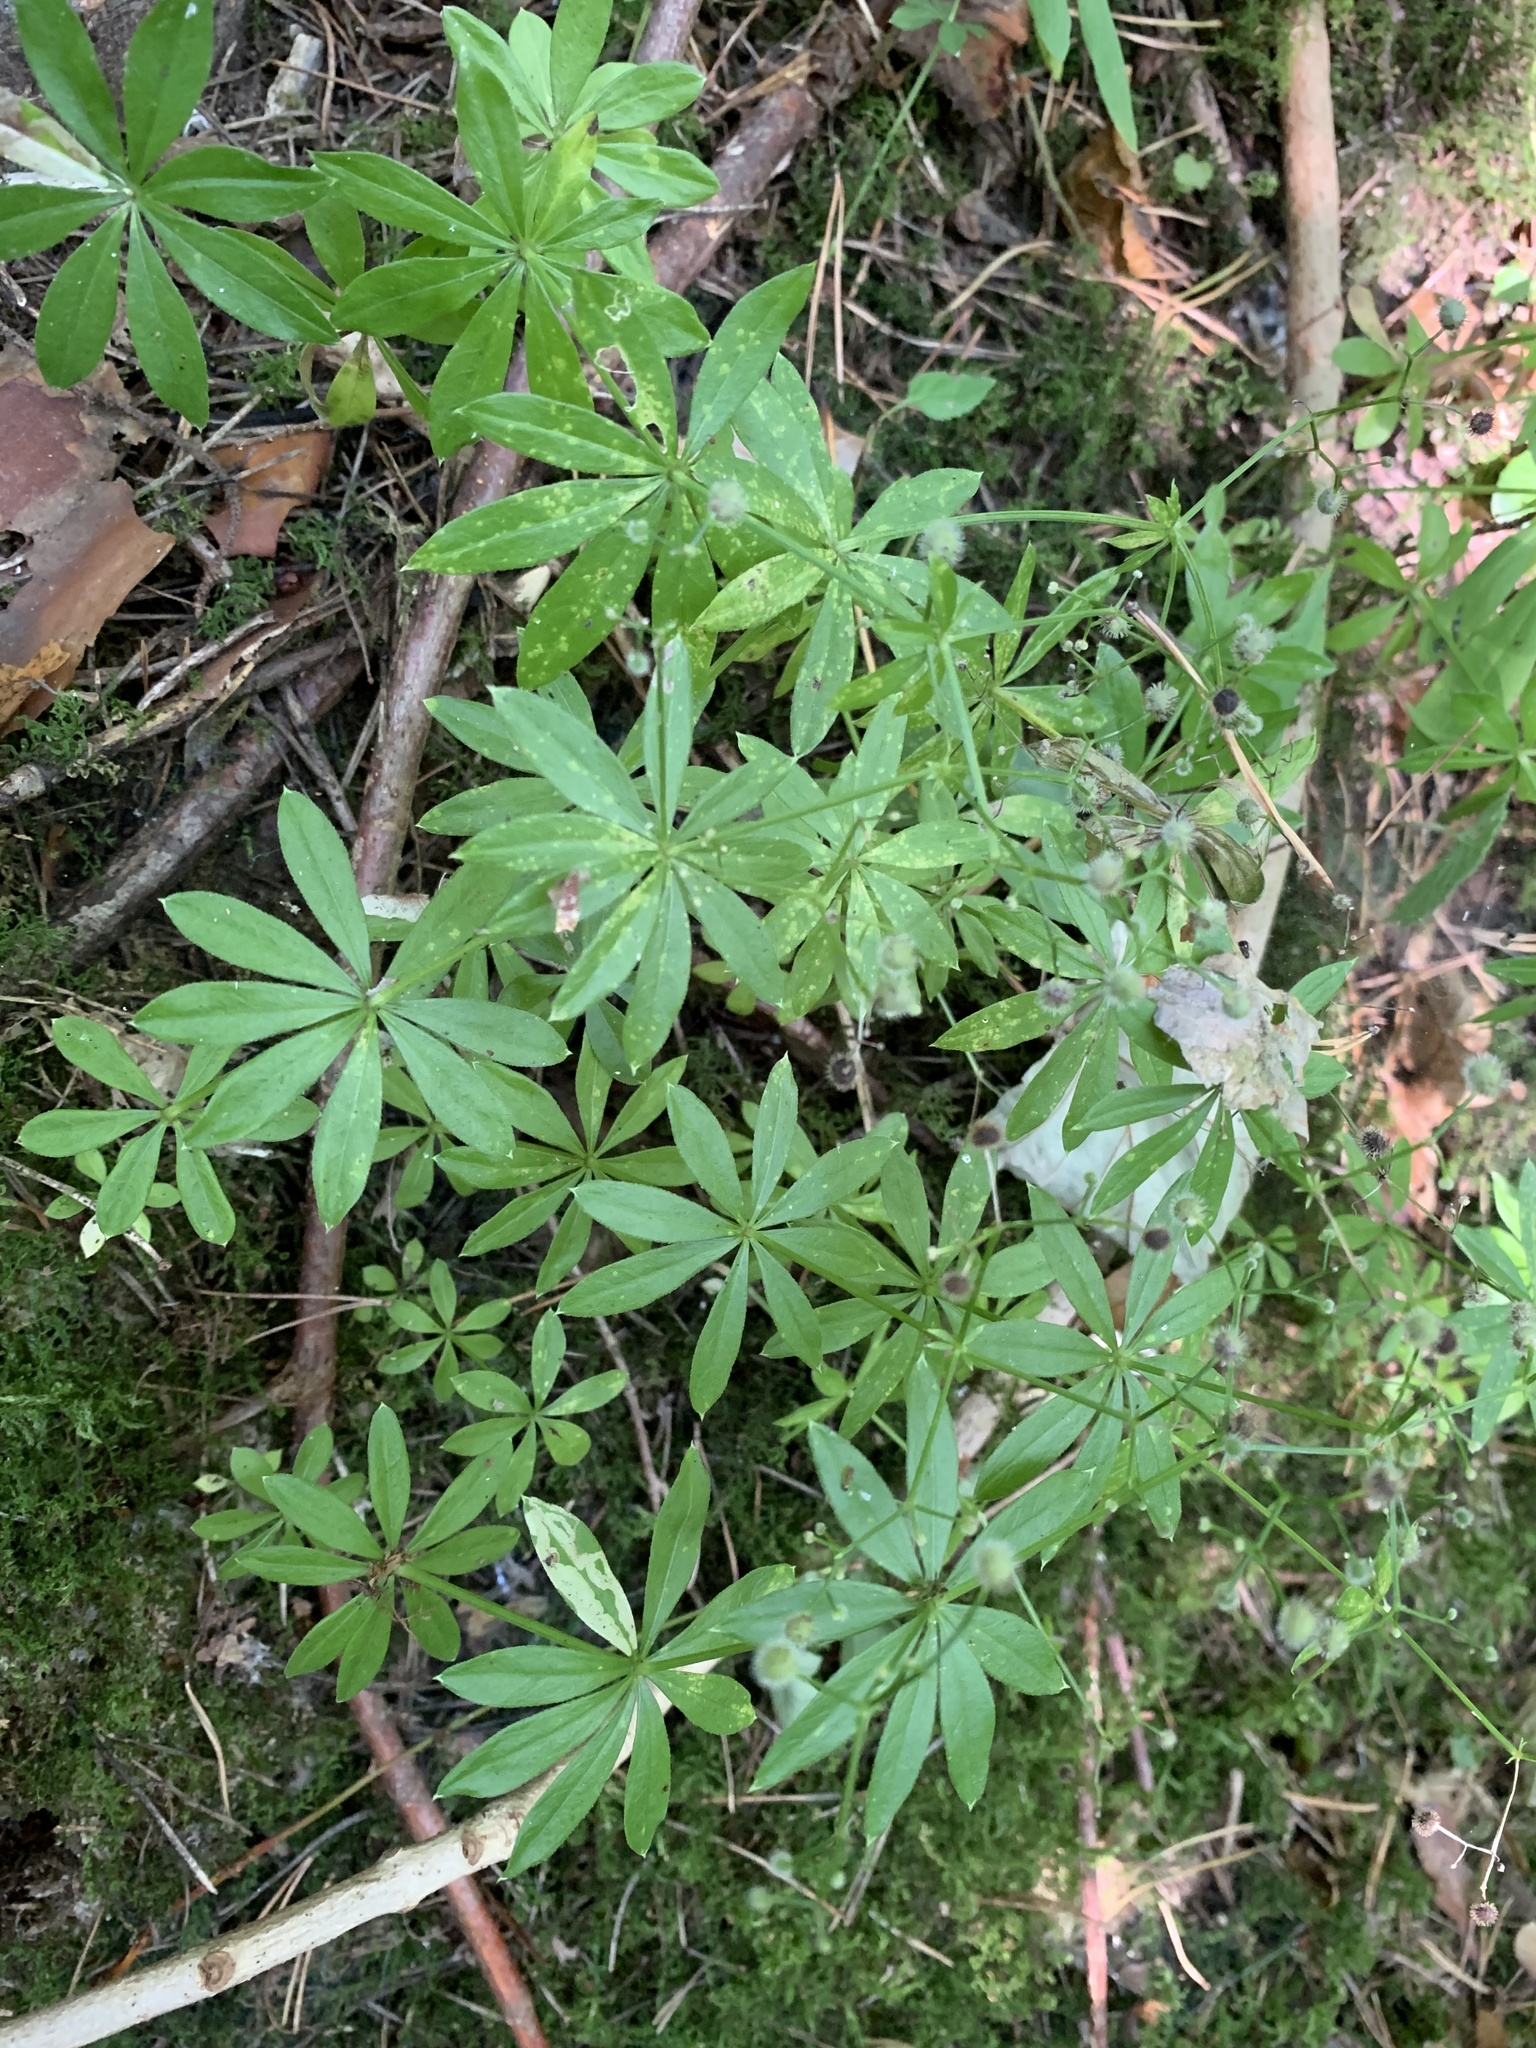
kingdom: Plantae
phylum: Tracheophyta
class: Magnoliopsida
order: Gentianales
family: Rubiaceae
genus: Galium
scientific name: Galium odoratum
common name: Sweet woodruff
